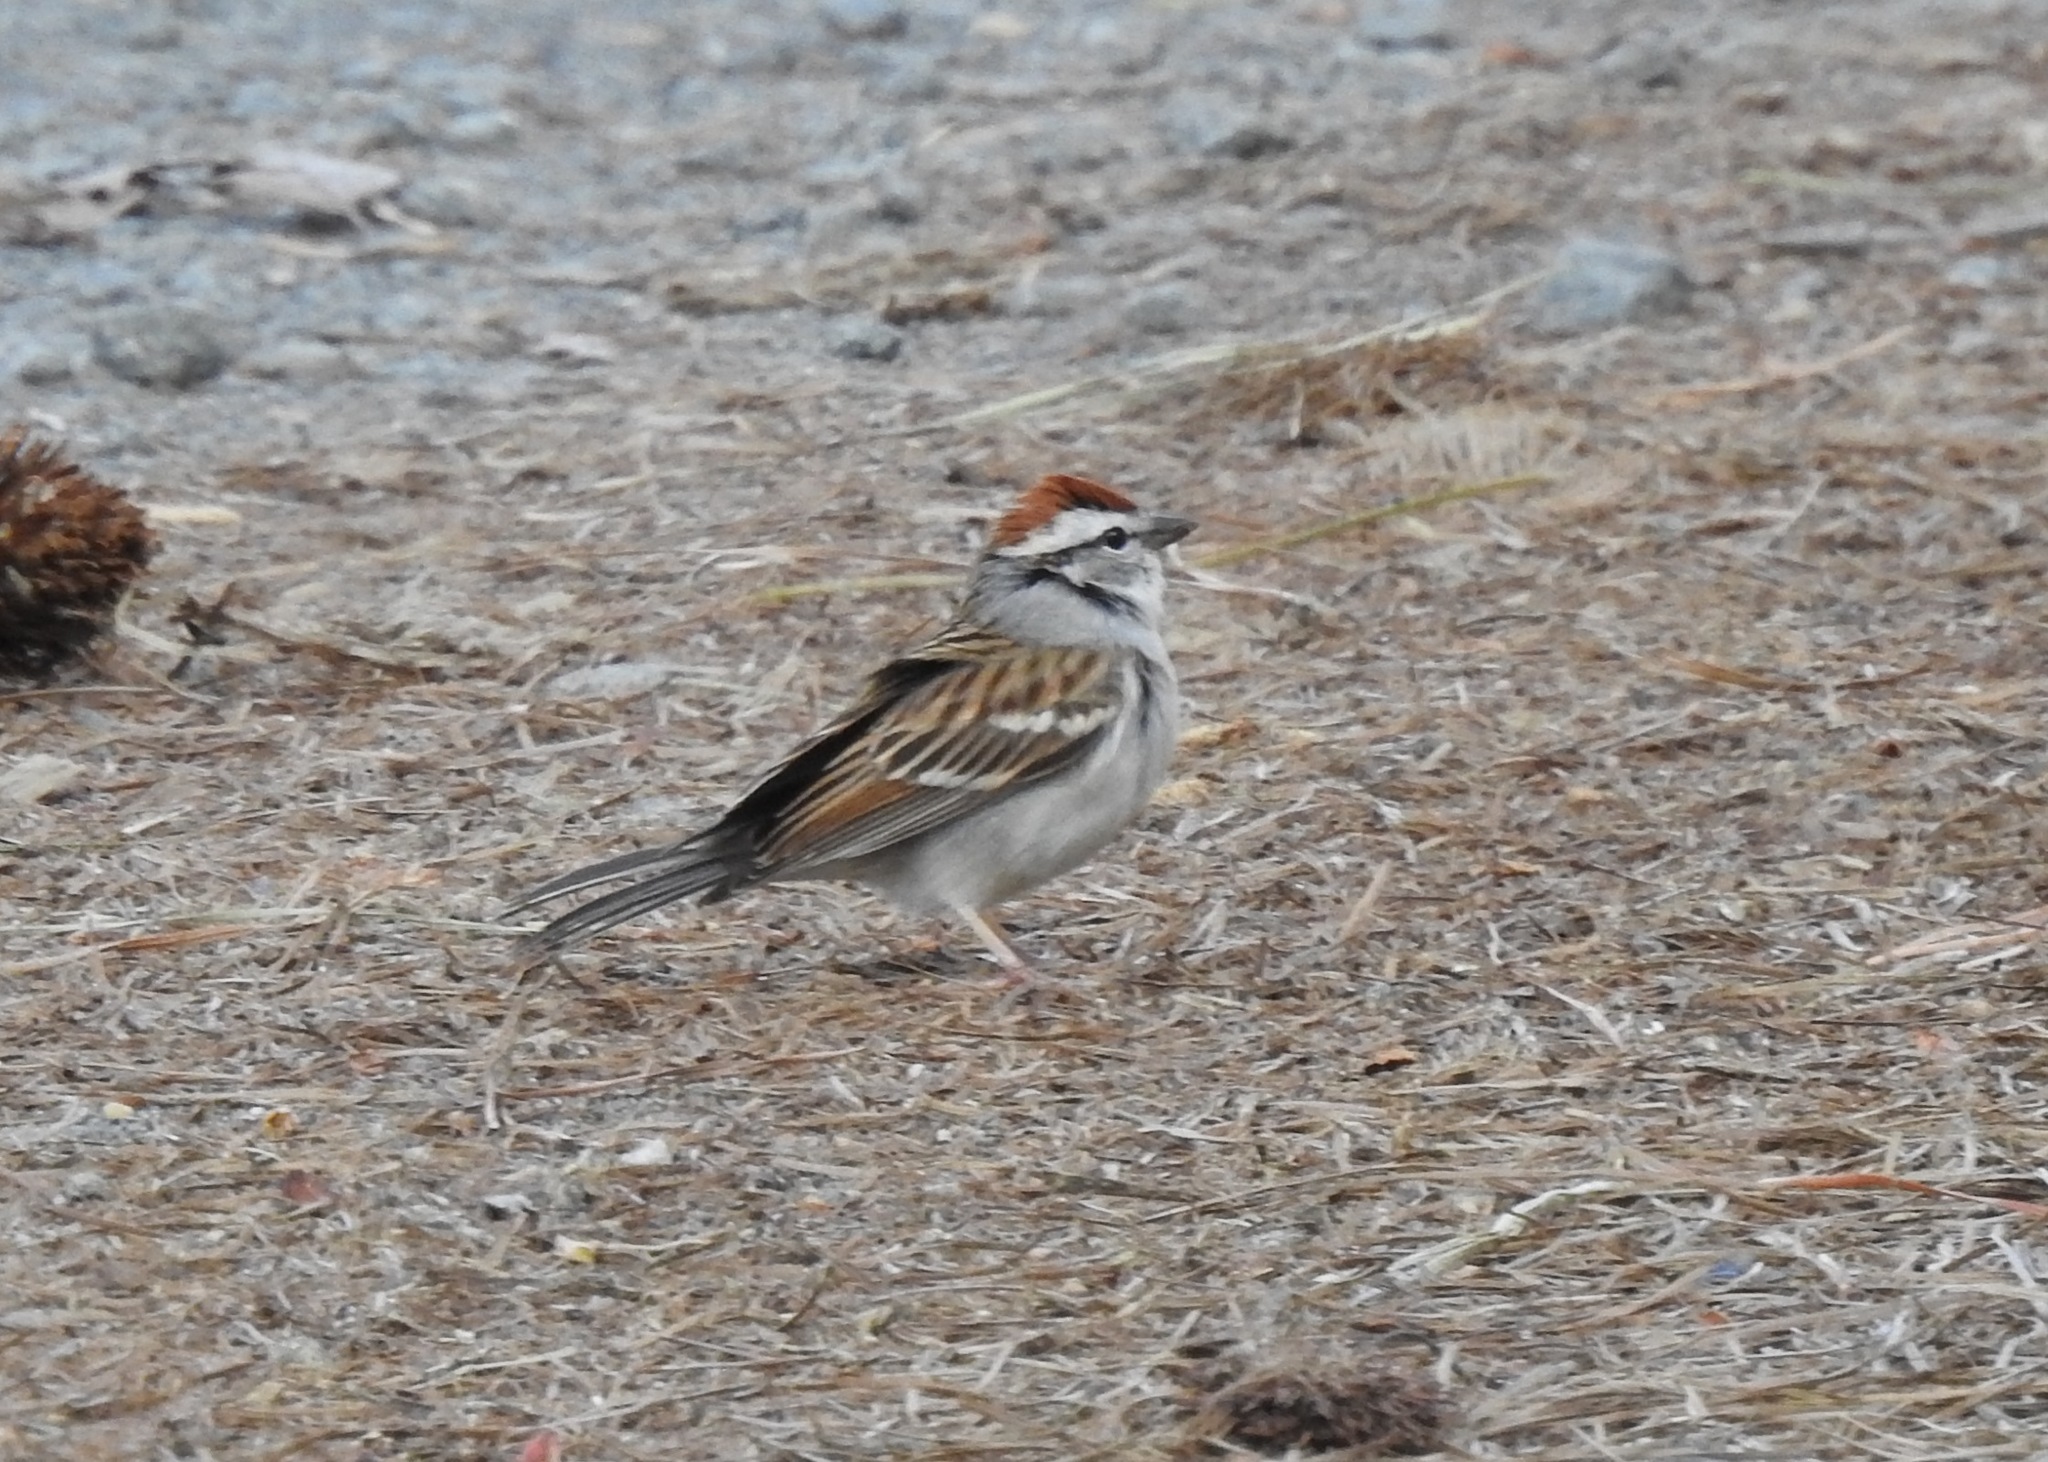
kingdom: Animalia
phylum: Chordata
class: Aves
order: Passeriformes
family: Passerellidae
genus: Spizella
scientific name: Spizella passerina
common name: Chipping sparrow
